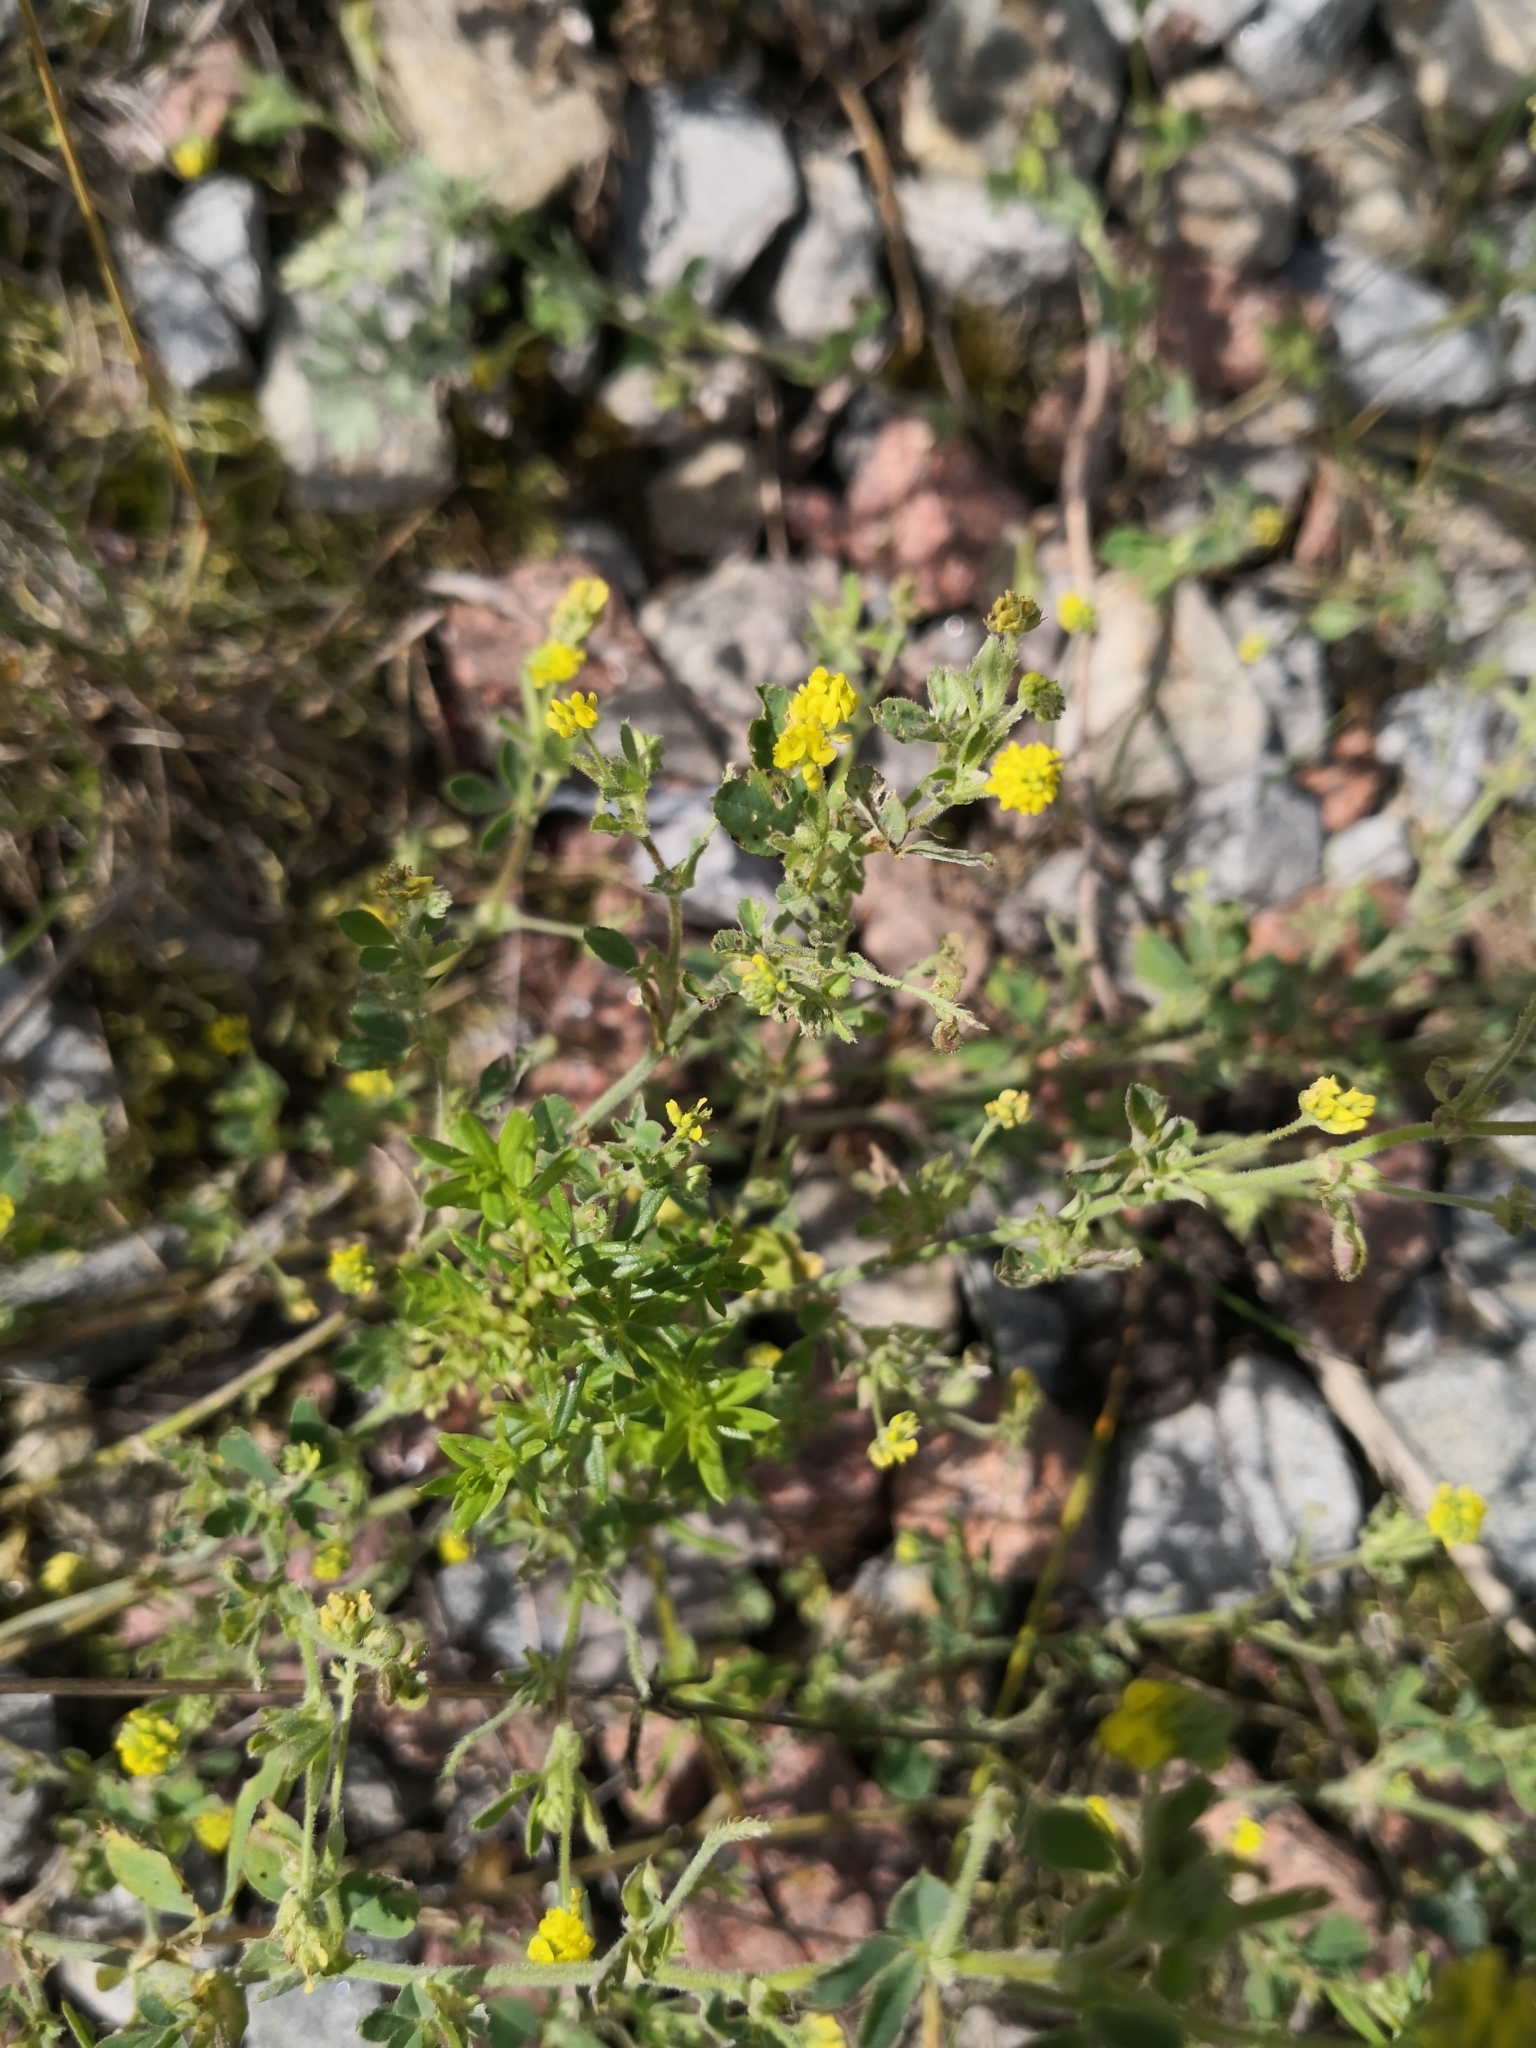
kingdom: Plantae
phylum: Tracheophyta
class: Magnoliopsida
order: Fabales
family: Fabaceae
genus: Medicago
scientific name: Medicago lupulina
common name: Black medick
